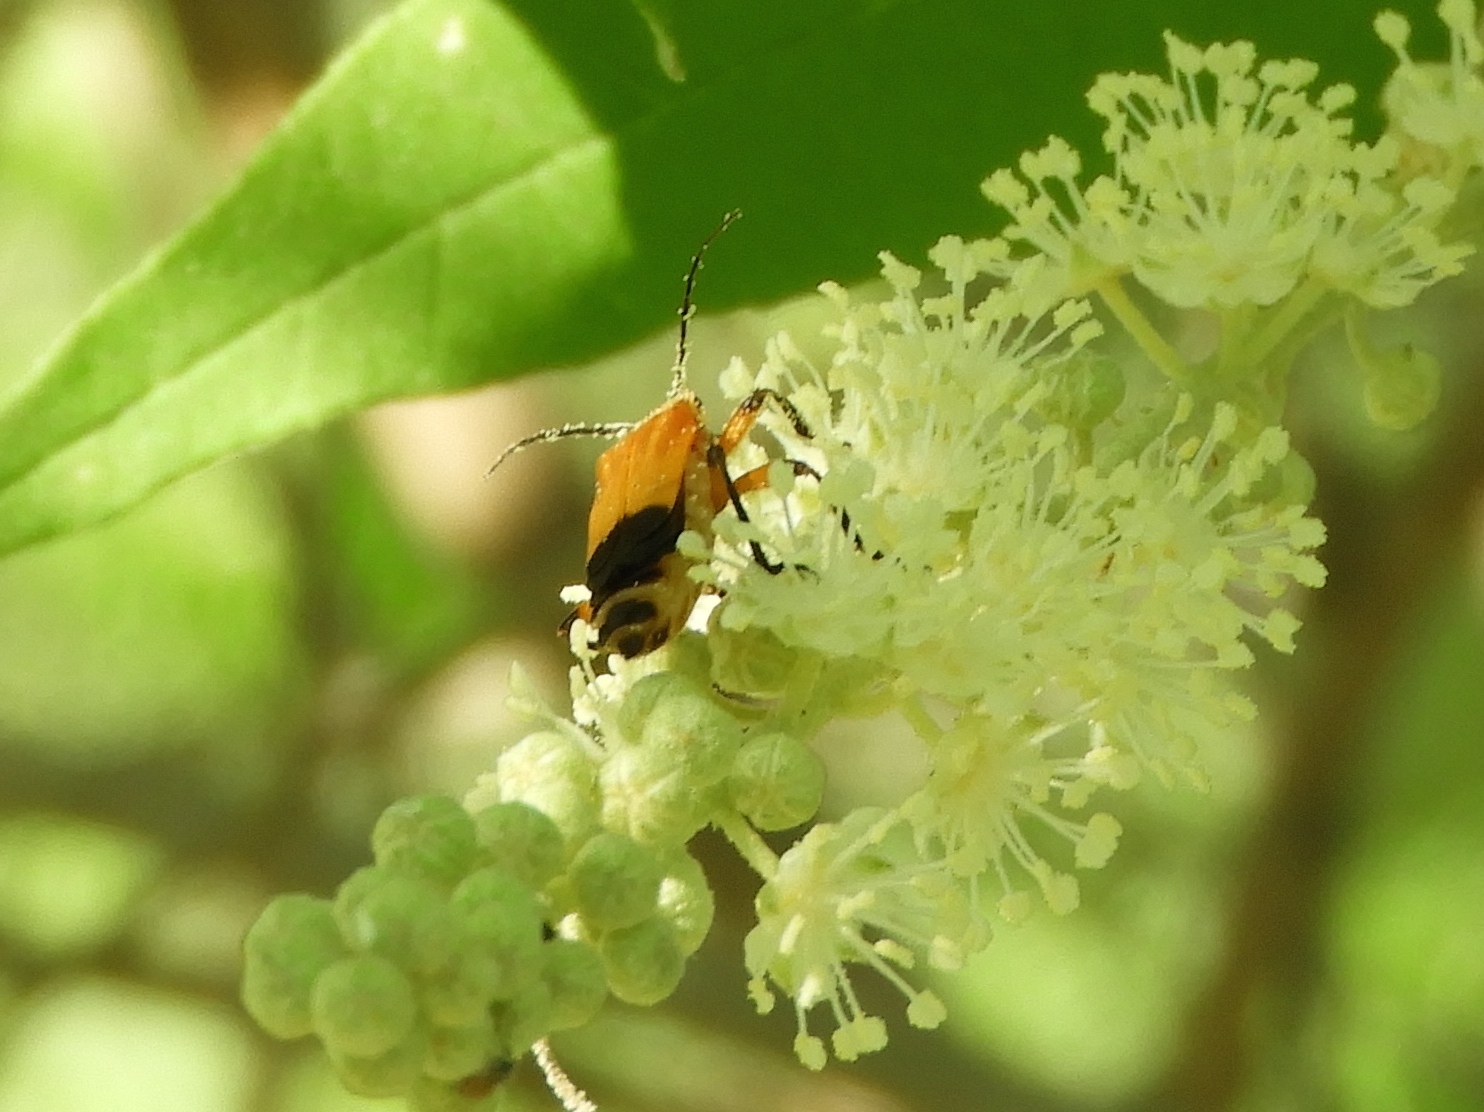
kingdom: Animalia
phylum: Arthropoda
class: Insecta
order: Coleoptera
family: Cantharidae
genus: Chauliognathus
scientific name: Chauliognathus
